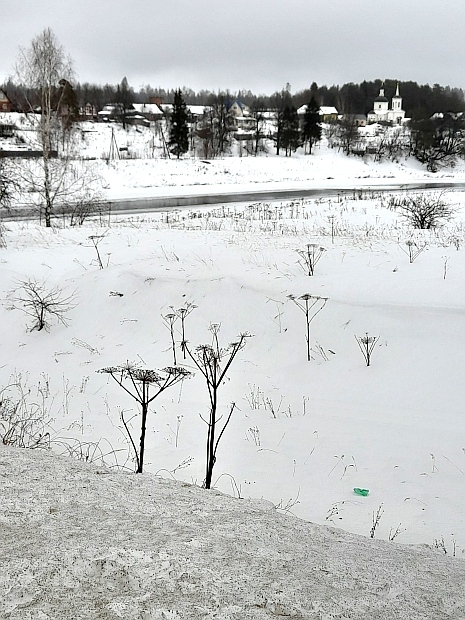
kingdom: Plantae
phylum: Tracheophyta
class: Magnoliopsida
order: Apiales
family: Apiaceae
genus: Heracleum
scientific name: Heracleum sosnowskyi
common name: Sosnowsky's hogweed
